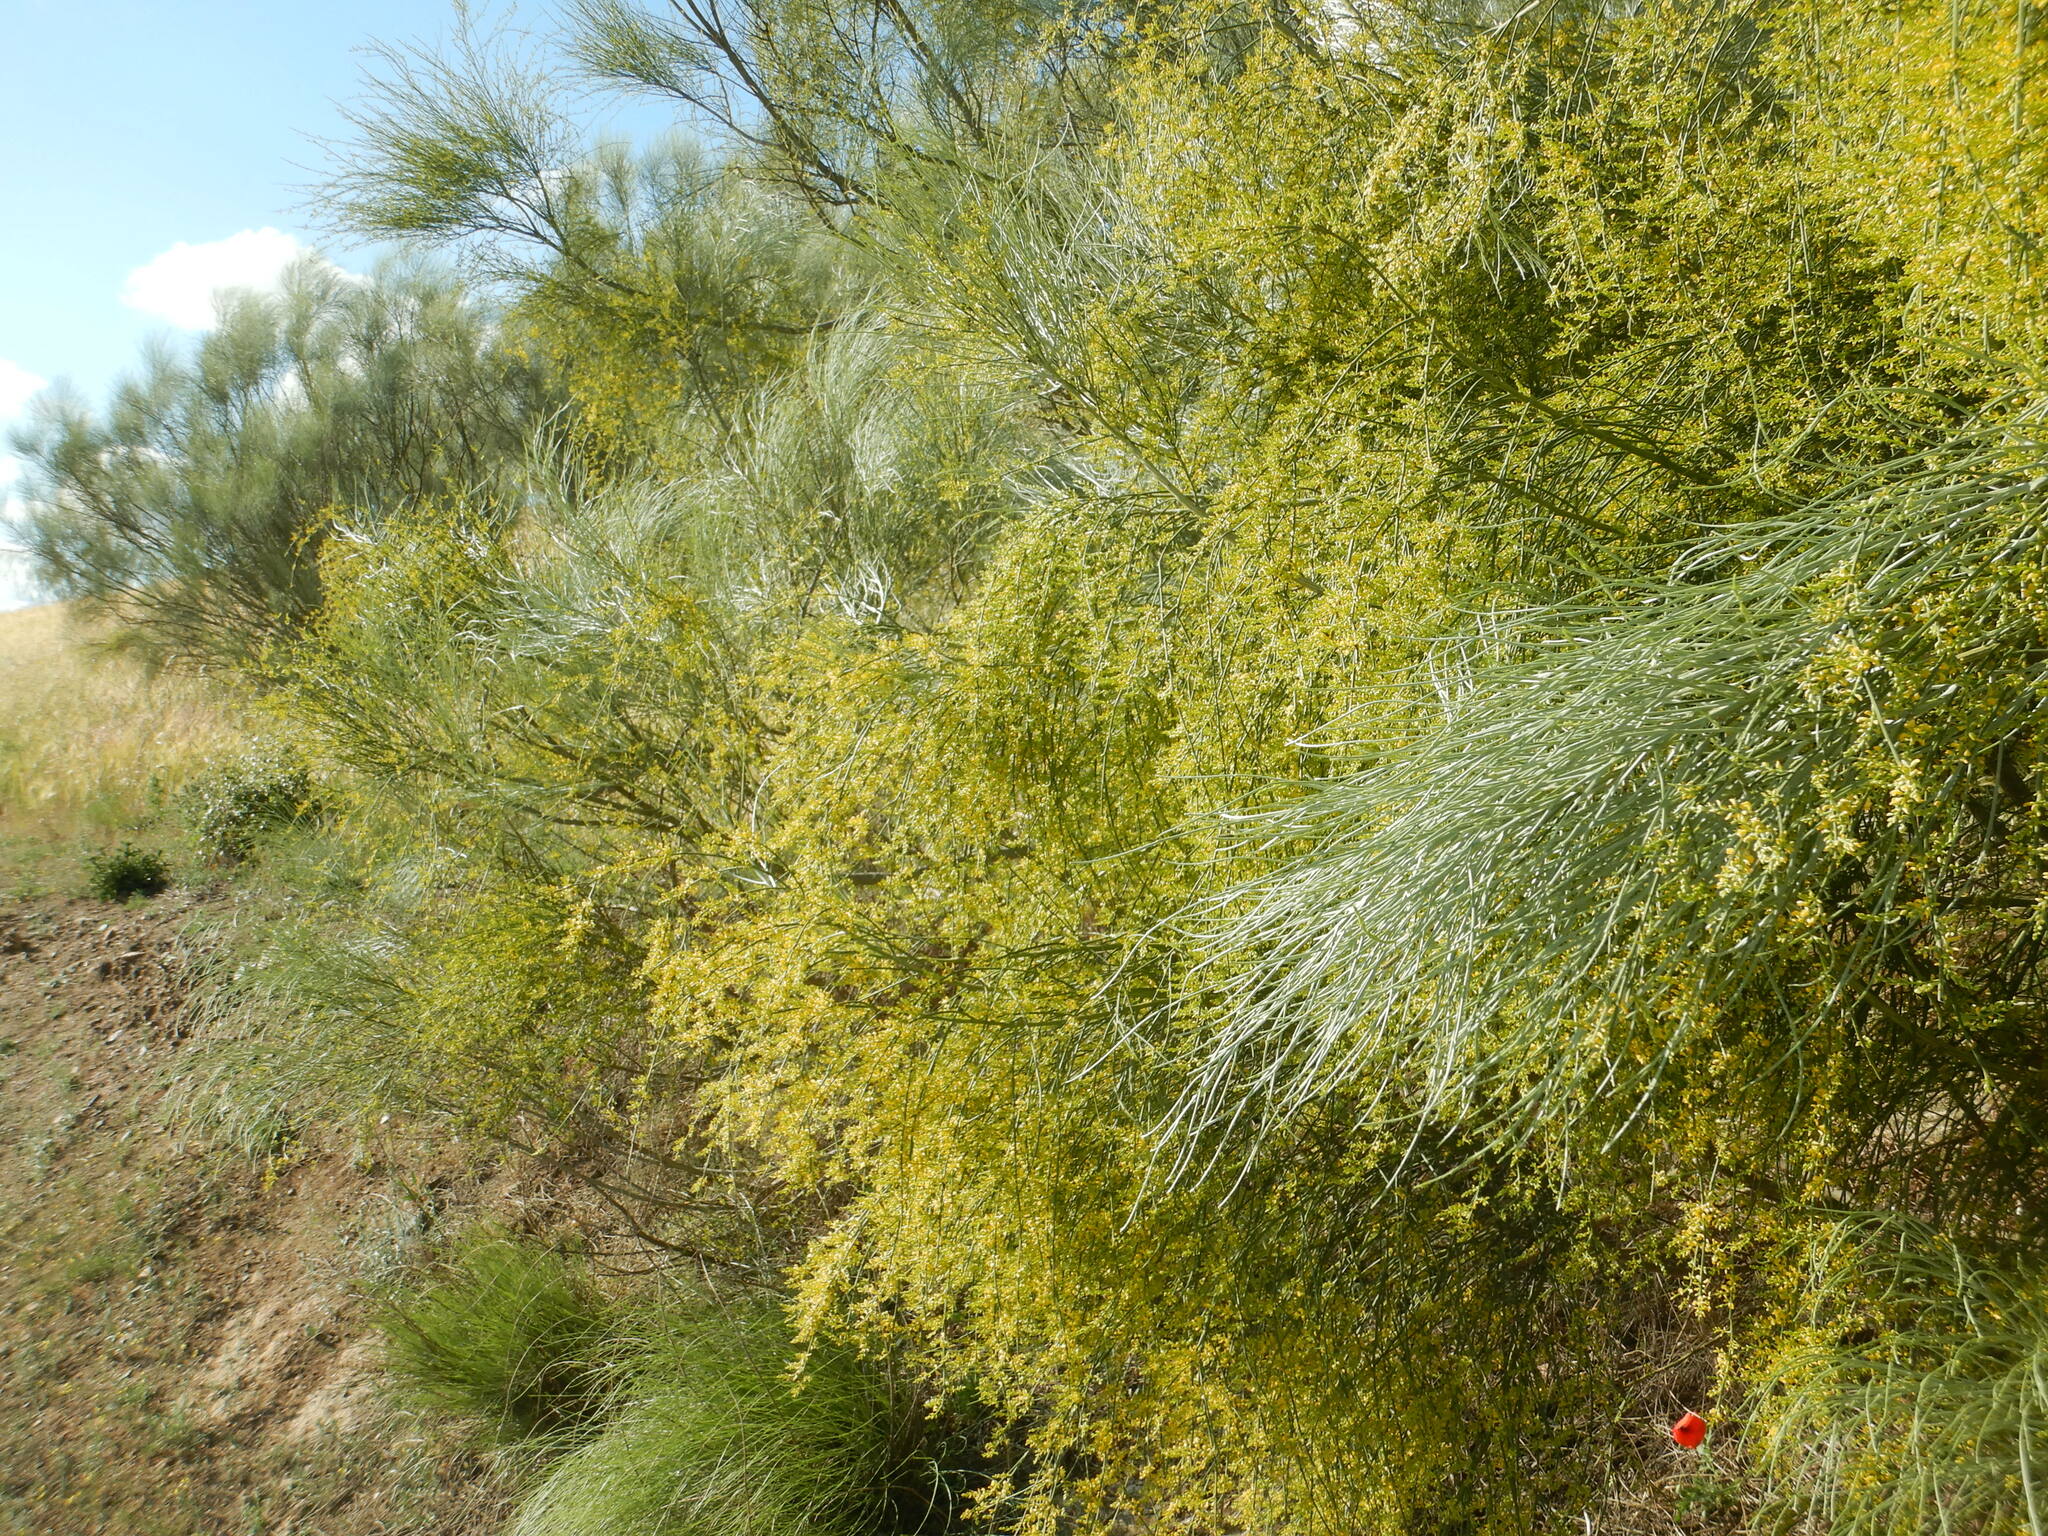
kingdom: Plantae
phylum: Tracheophyta
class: Magnoliopsida
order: Fabales
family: Fabaceae
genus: Retama
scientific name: Retama sphaerocarpa
